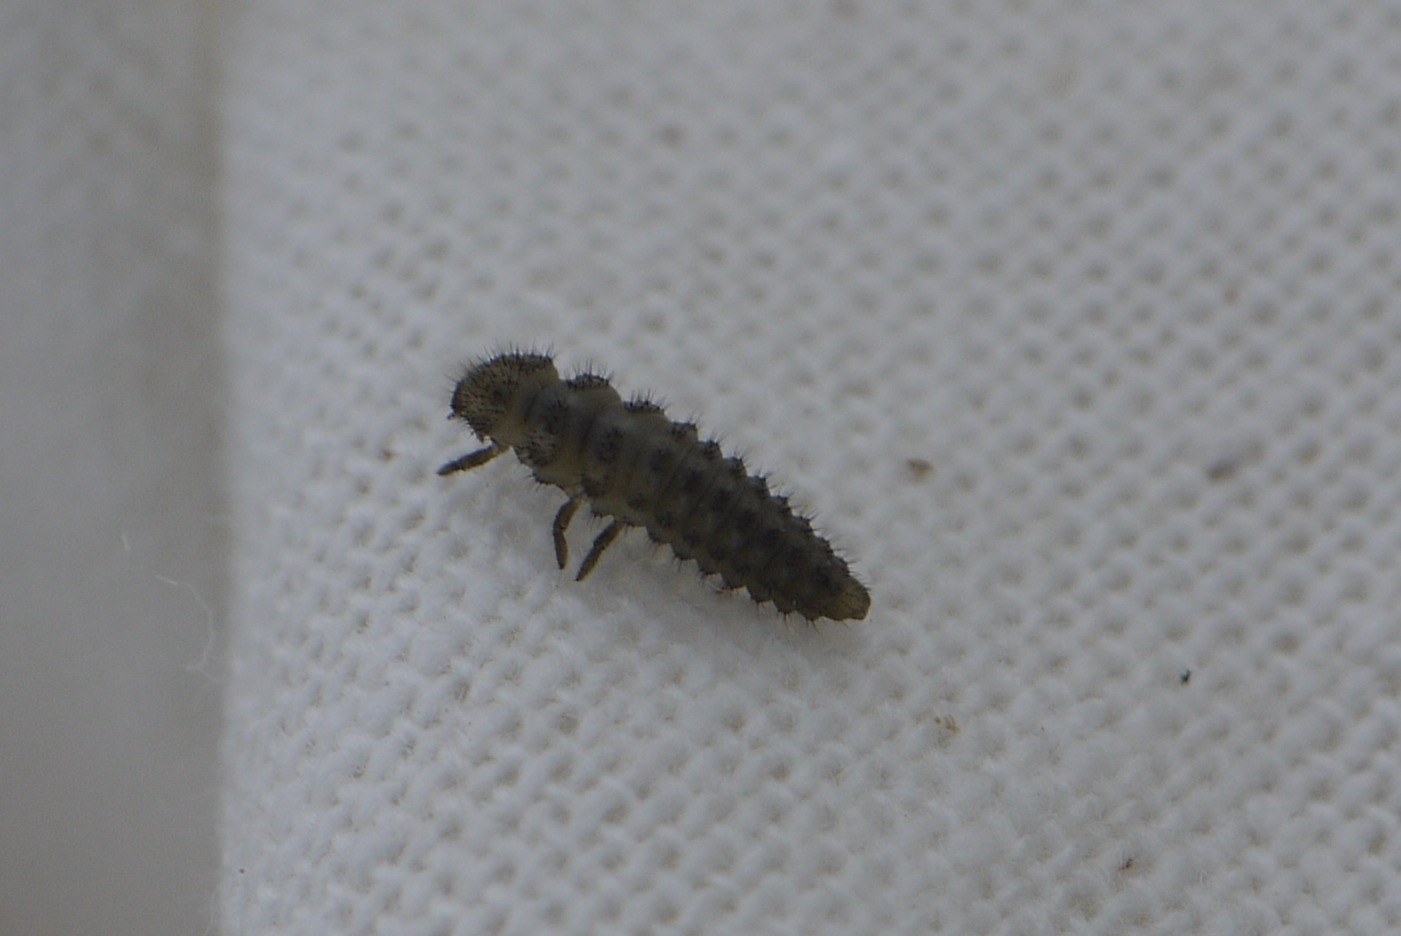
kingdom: Animalia
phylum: Arthropoda
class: Insecta
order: Coleoptera
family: Coccinellidae
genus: Tytthaspis
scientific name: Tytthaspis sedecimpunctata
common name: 16-spot ladybird
